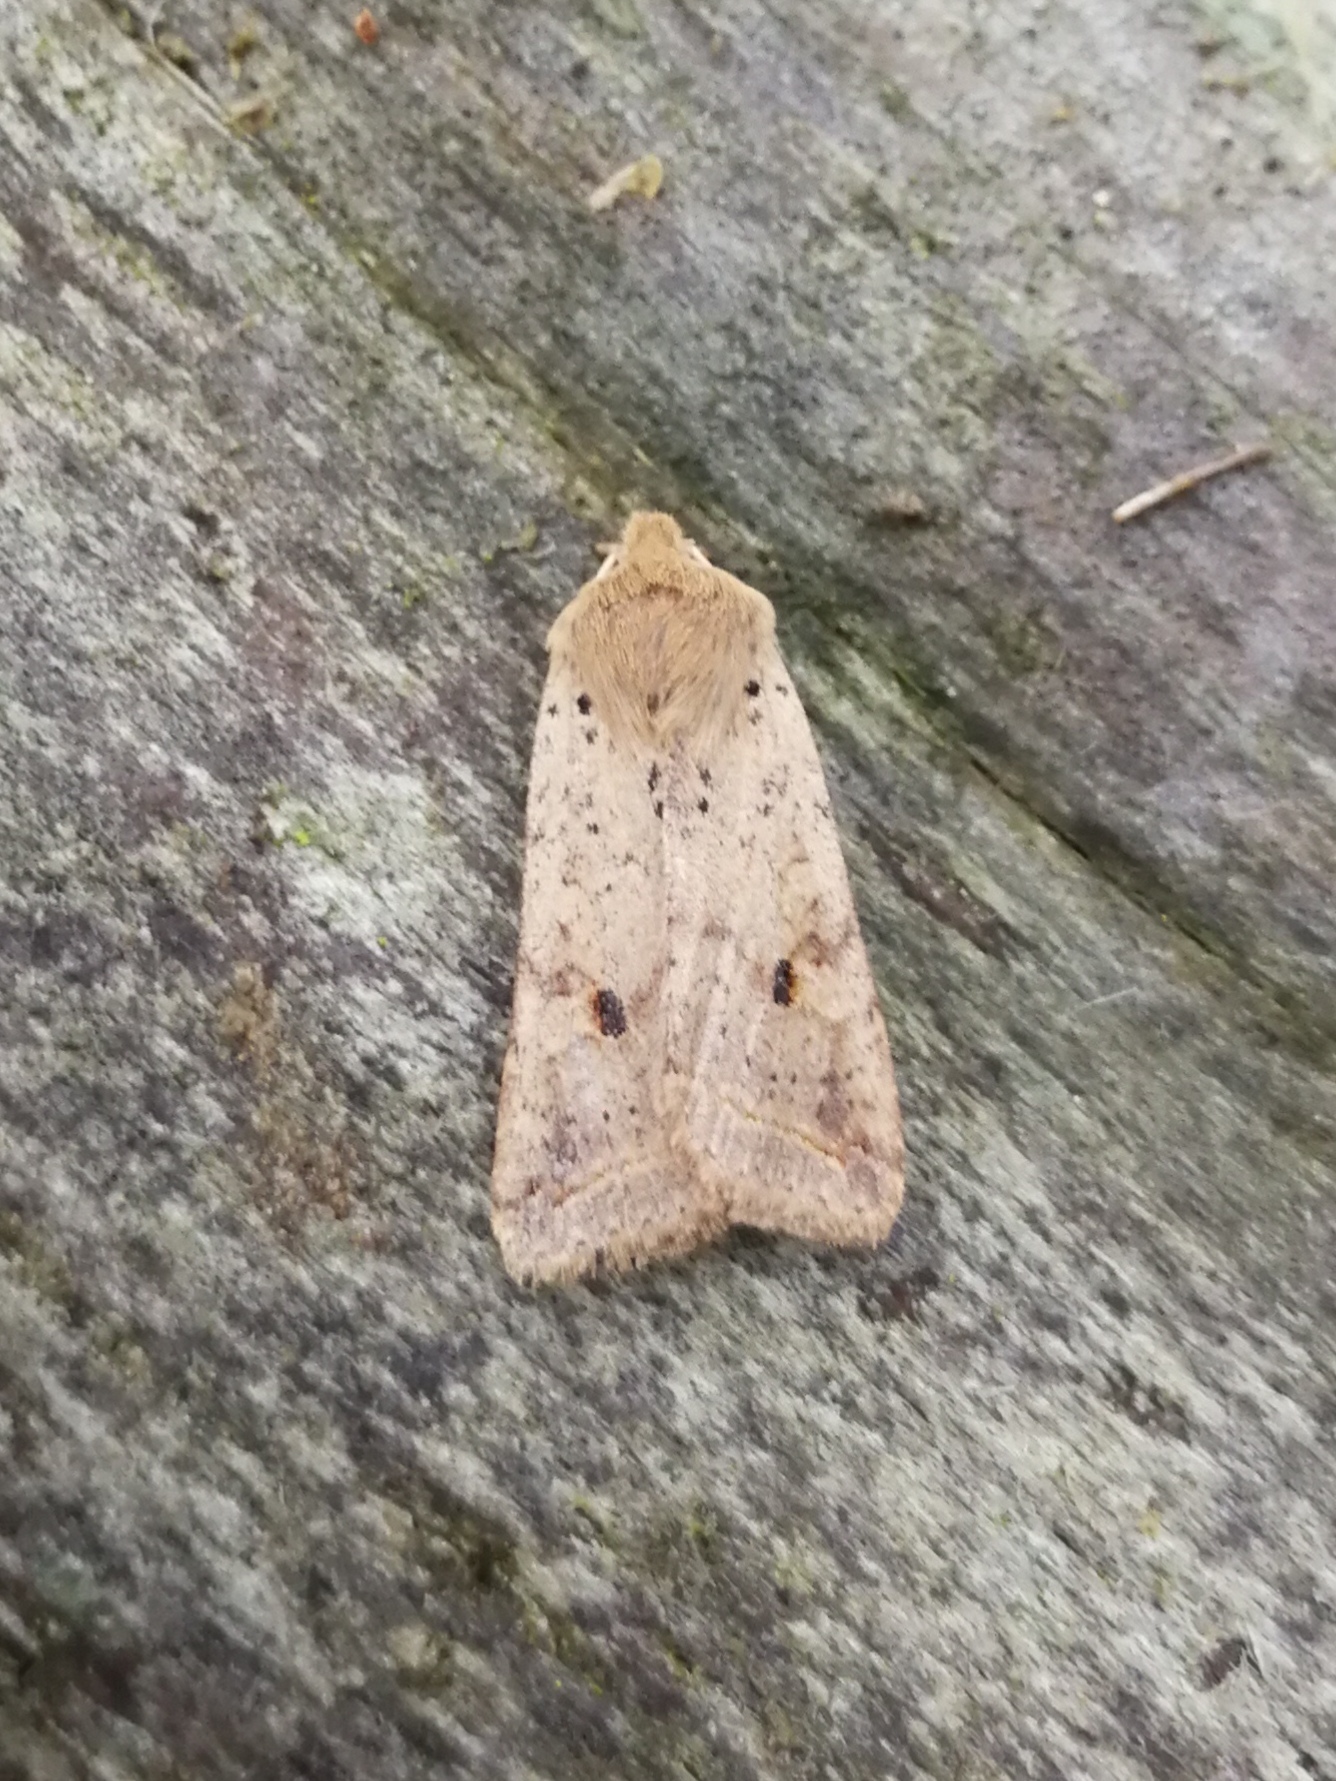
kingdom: Animalia
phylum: Arthropoda
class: Insecta
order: Lepidoptera
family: Noctuidae
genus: Agrochola
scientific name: Agrochola blidaensis
